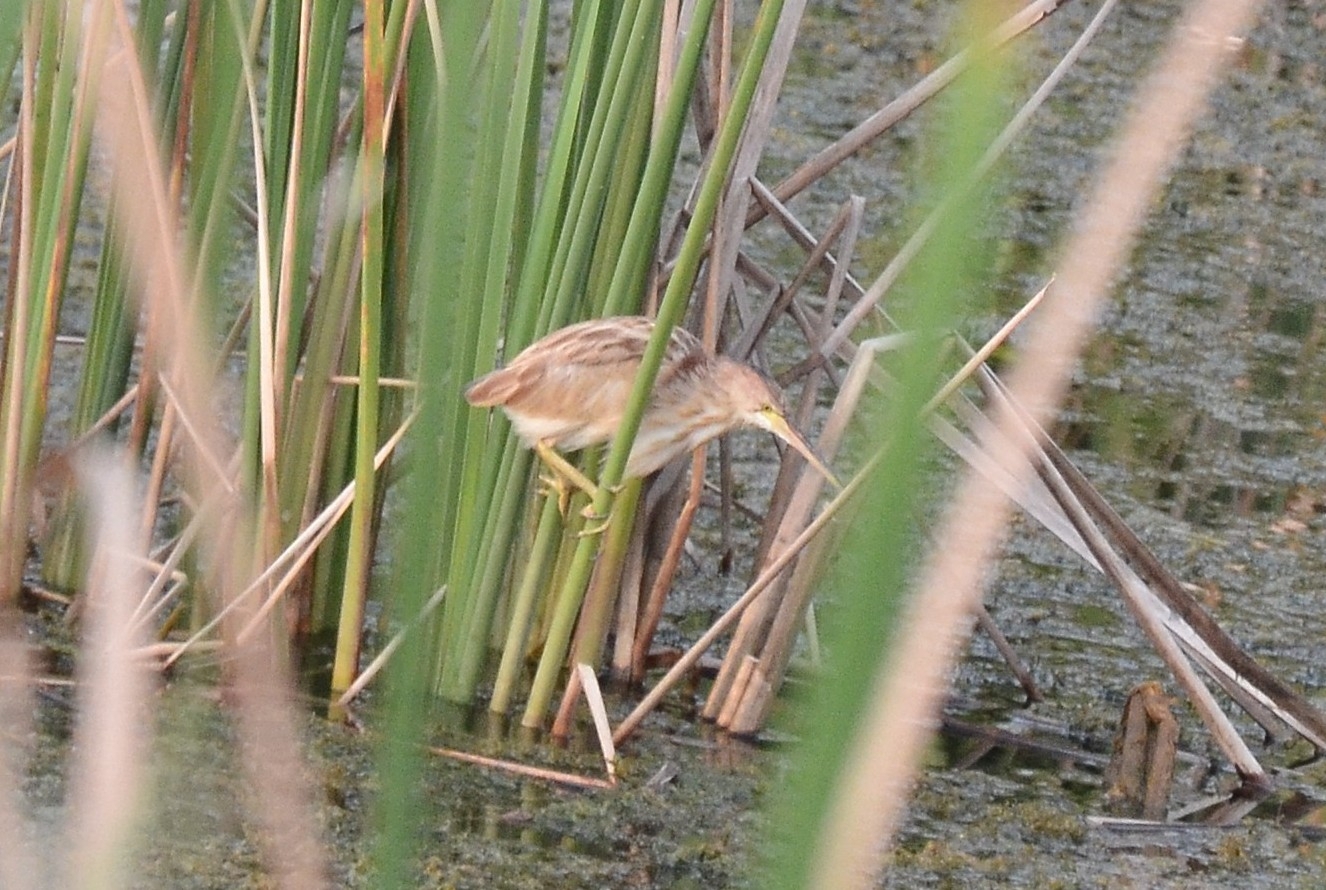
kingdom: Animalia
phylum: Chordata
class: Aves
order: Pelecaniformes
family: Ardeidae
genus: Ixobrychus
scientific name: Ixobrychus sinensis
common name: Yellow bittern
